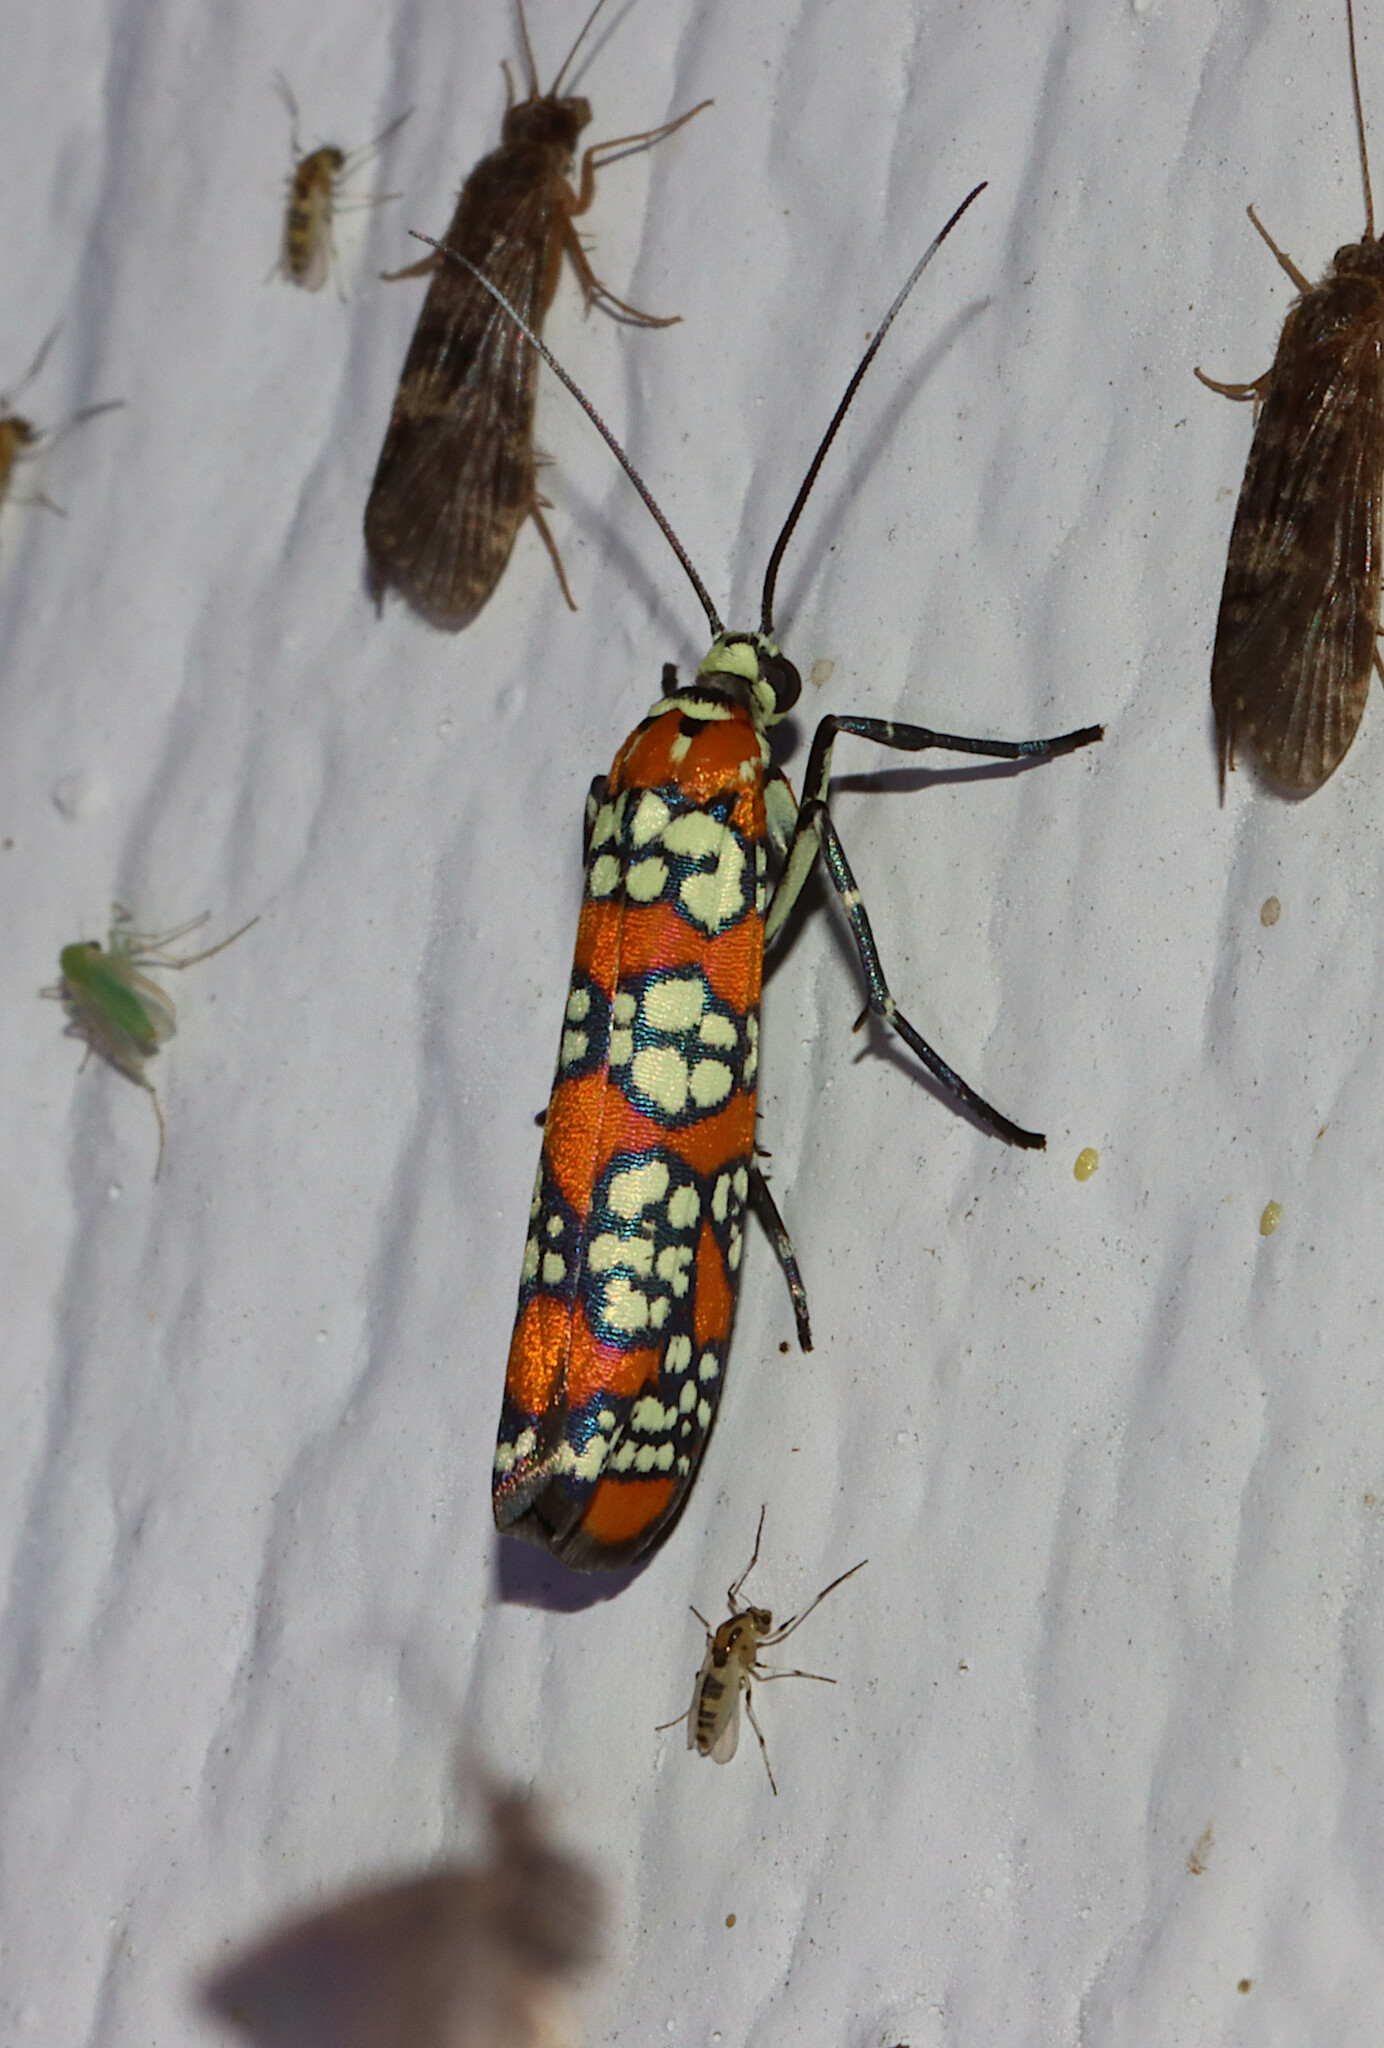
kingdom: Animalia
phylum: Arthropoda
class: Insecta
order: Lepidoptera
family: Attevidae
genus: Atteva
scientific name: Atteva punctella
